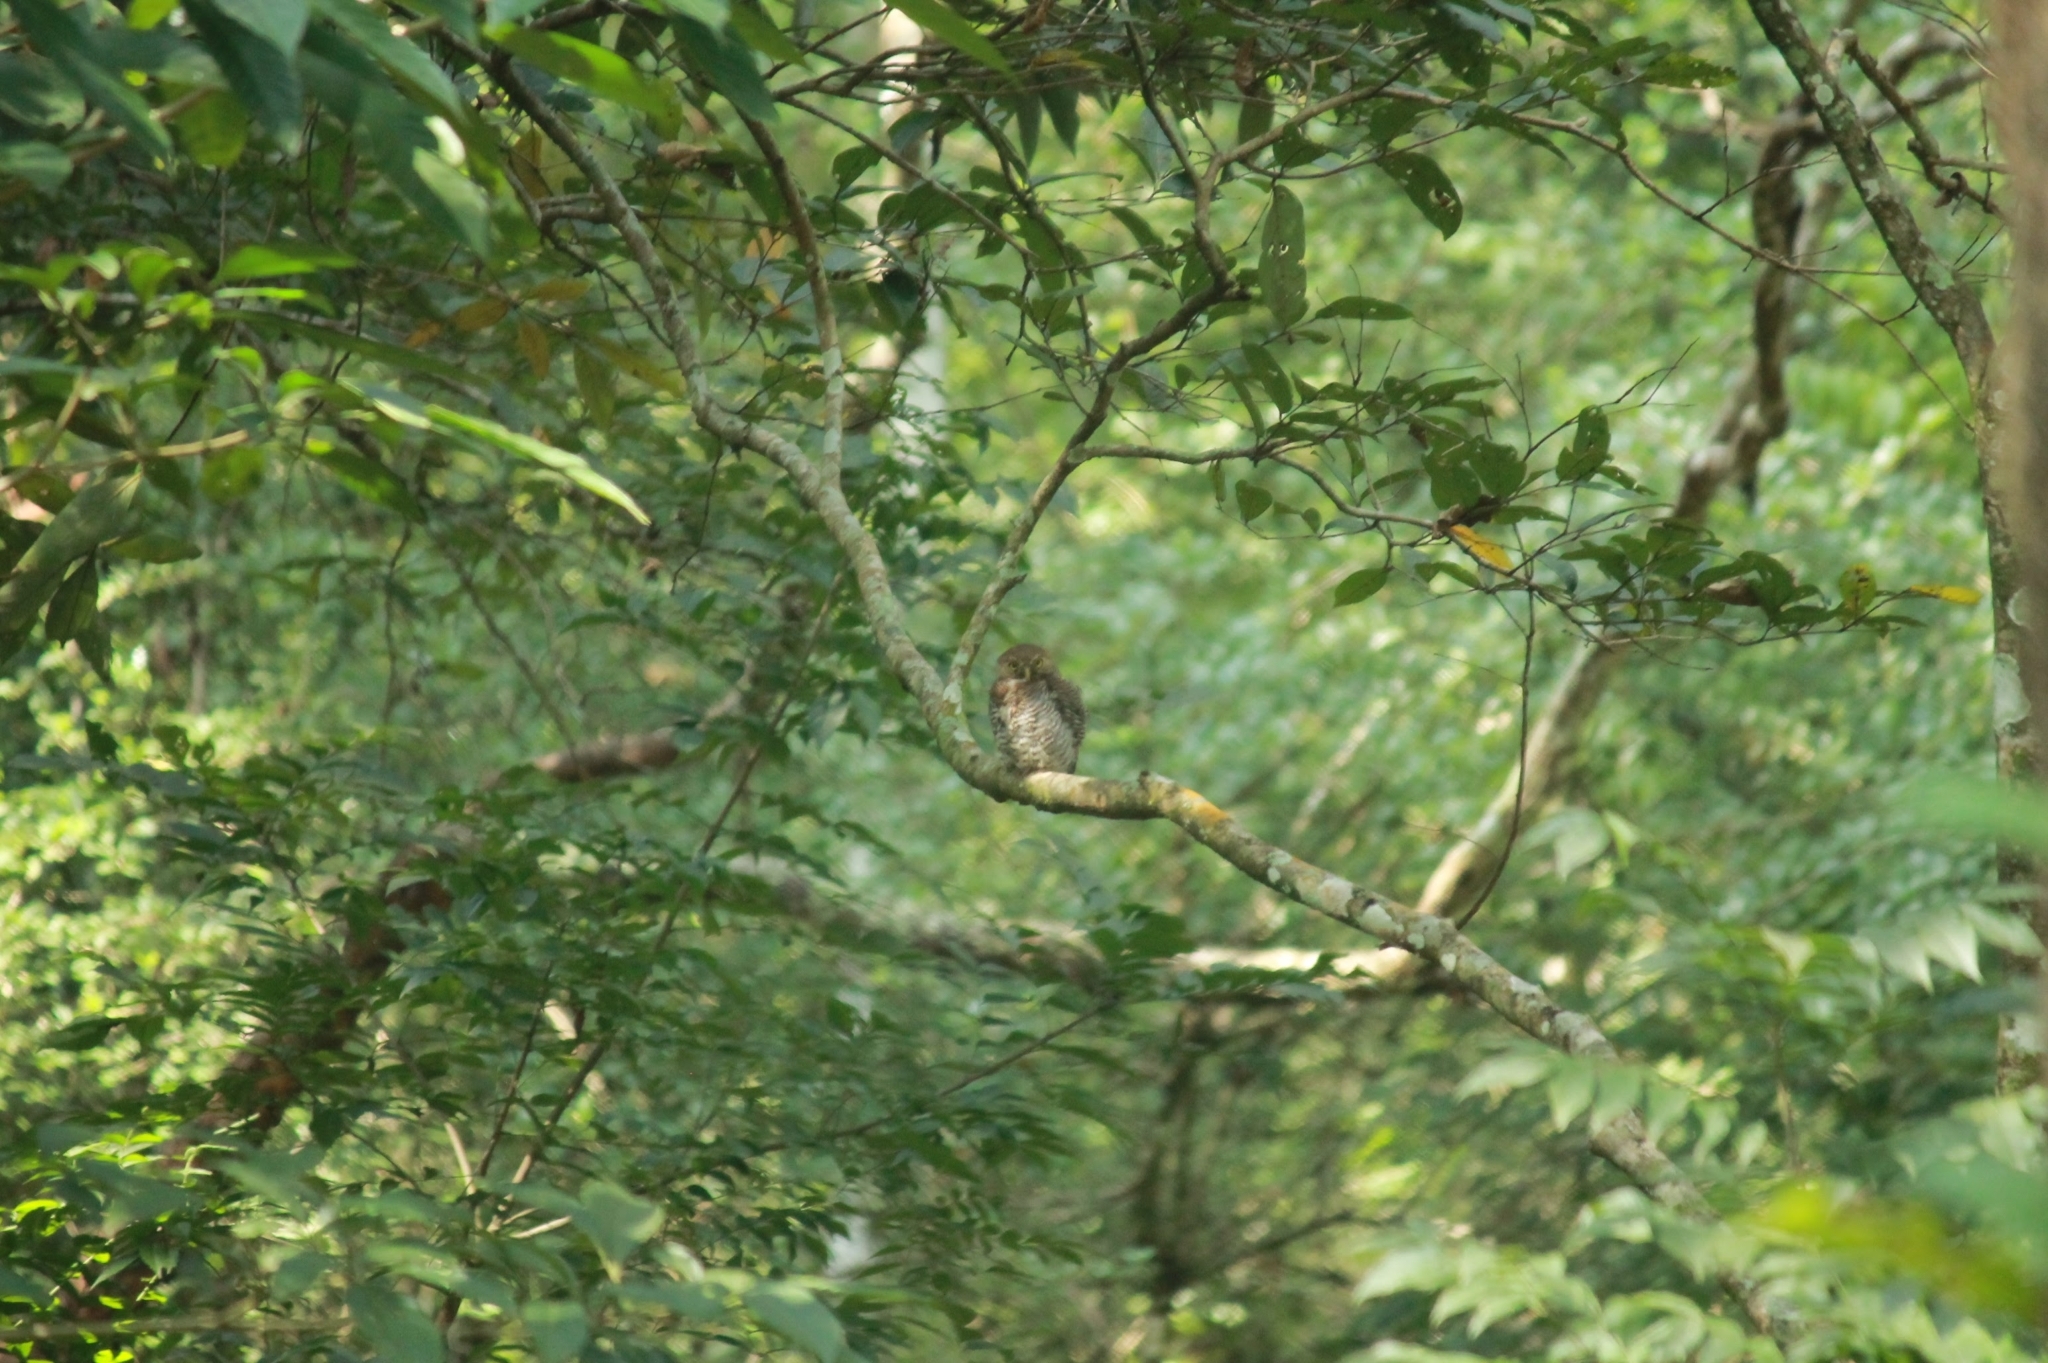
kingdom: Animalia
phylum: Chordata
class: Aves
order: Strigiformes
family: Strigidae
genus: Glaucidium
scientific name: Glaucidium radiatum
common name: Jungle owlet
